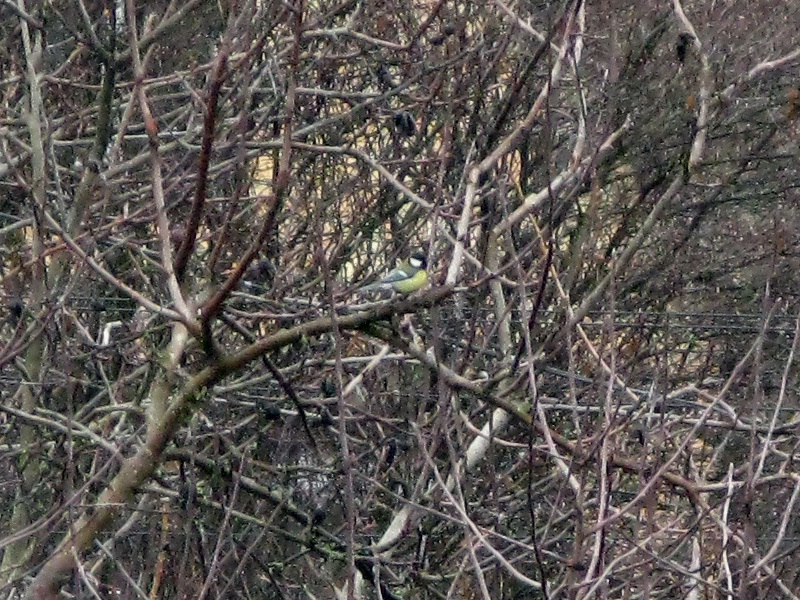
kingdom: Animalia
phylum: Chordata
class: Aves
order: Passeriformes
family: Paridae
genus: Parus
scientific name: Parus major
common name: Great tit
